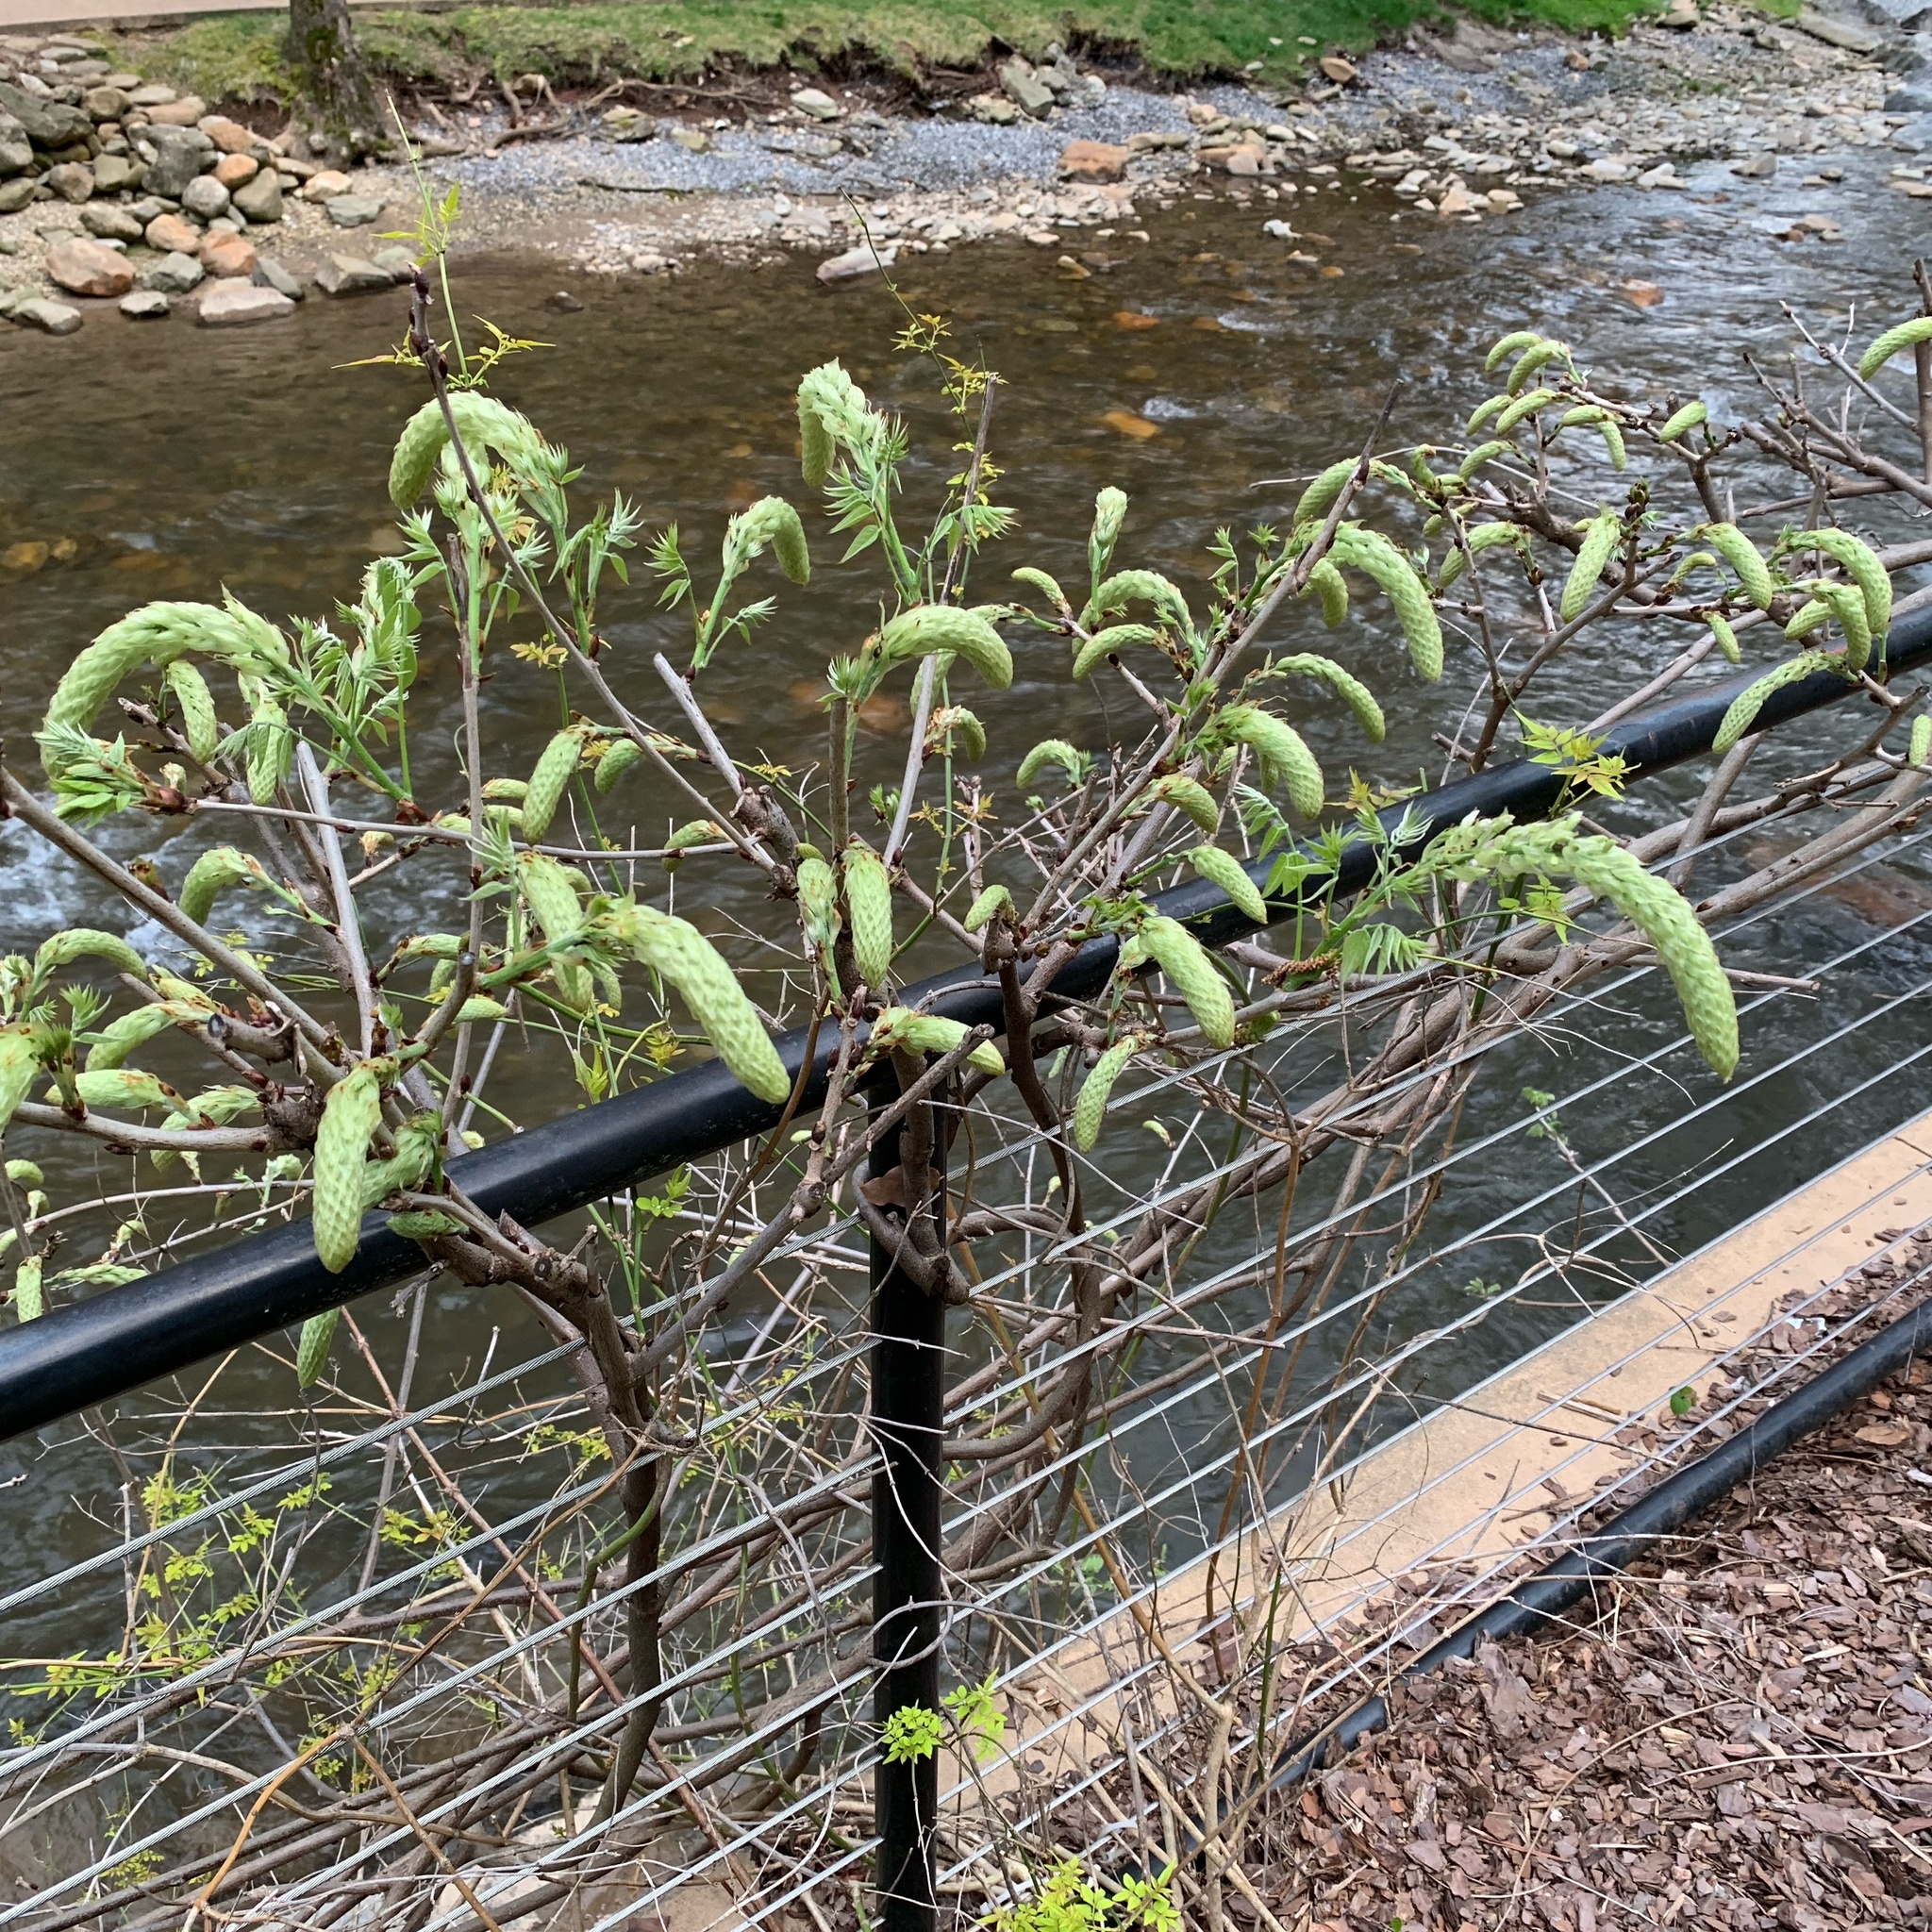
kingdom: Plantae
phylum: Tracheophyta
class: Magnoliopsida
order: Fabales
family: Fabaceae
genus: Wisteria
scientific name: Wisteria sinensis
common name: Chinese wisteria
